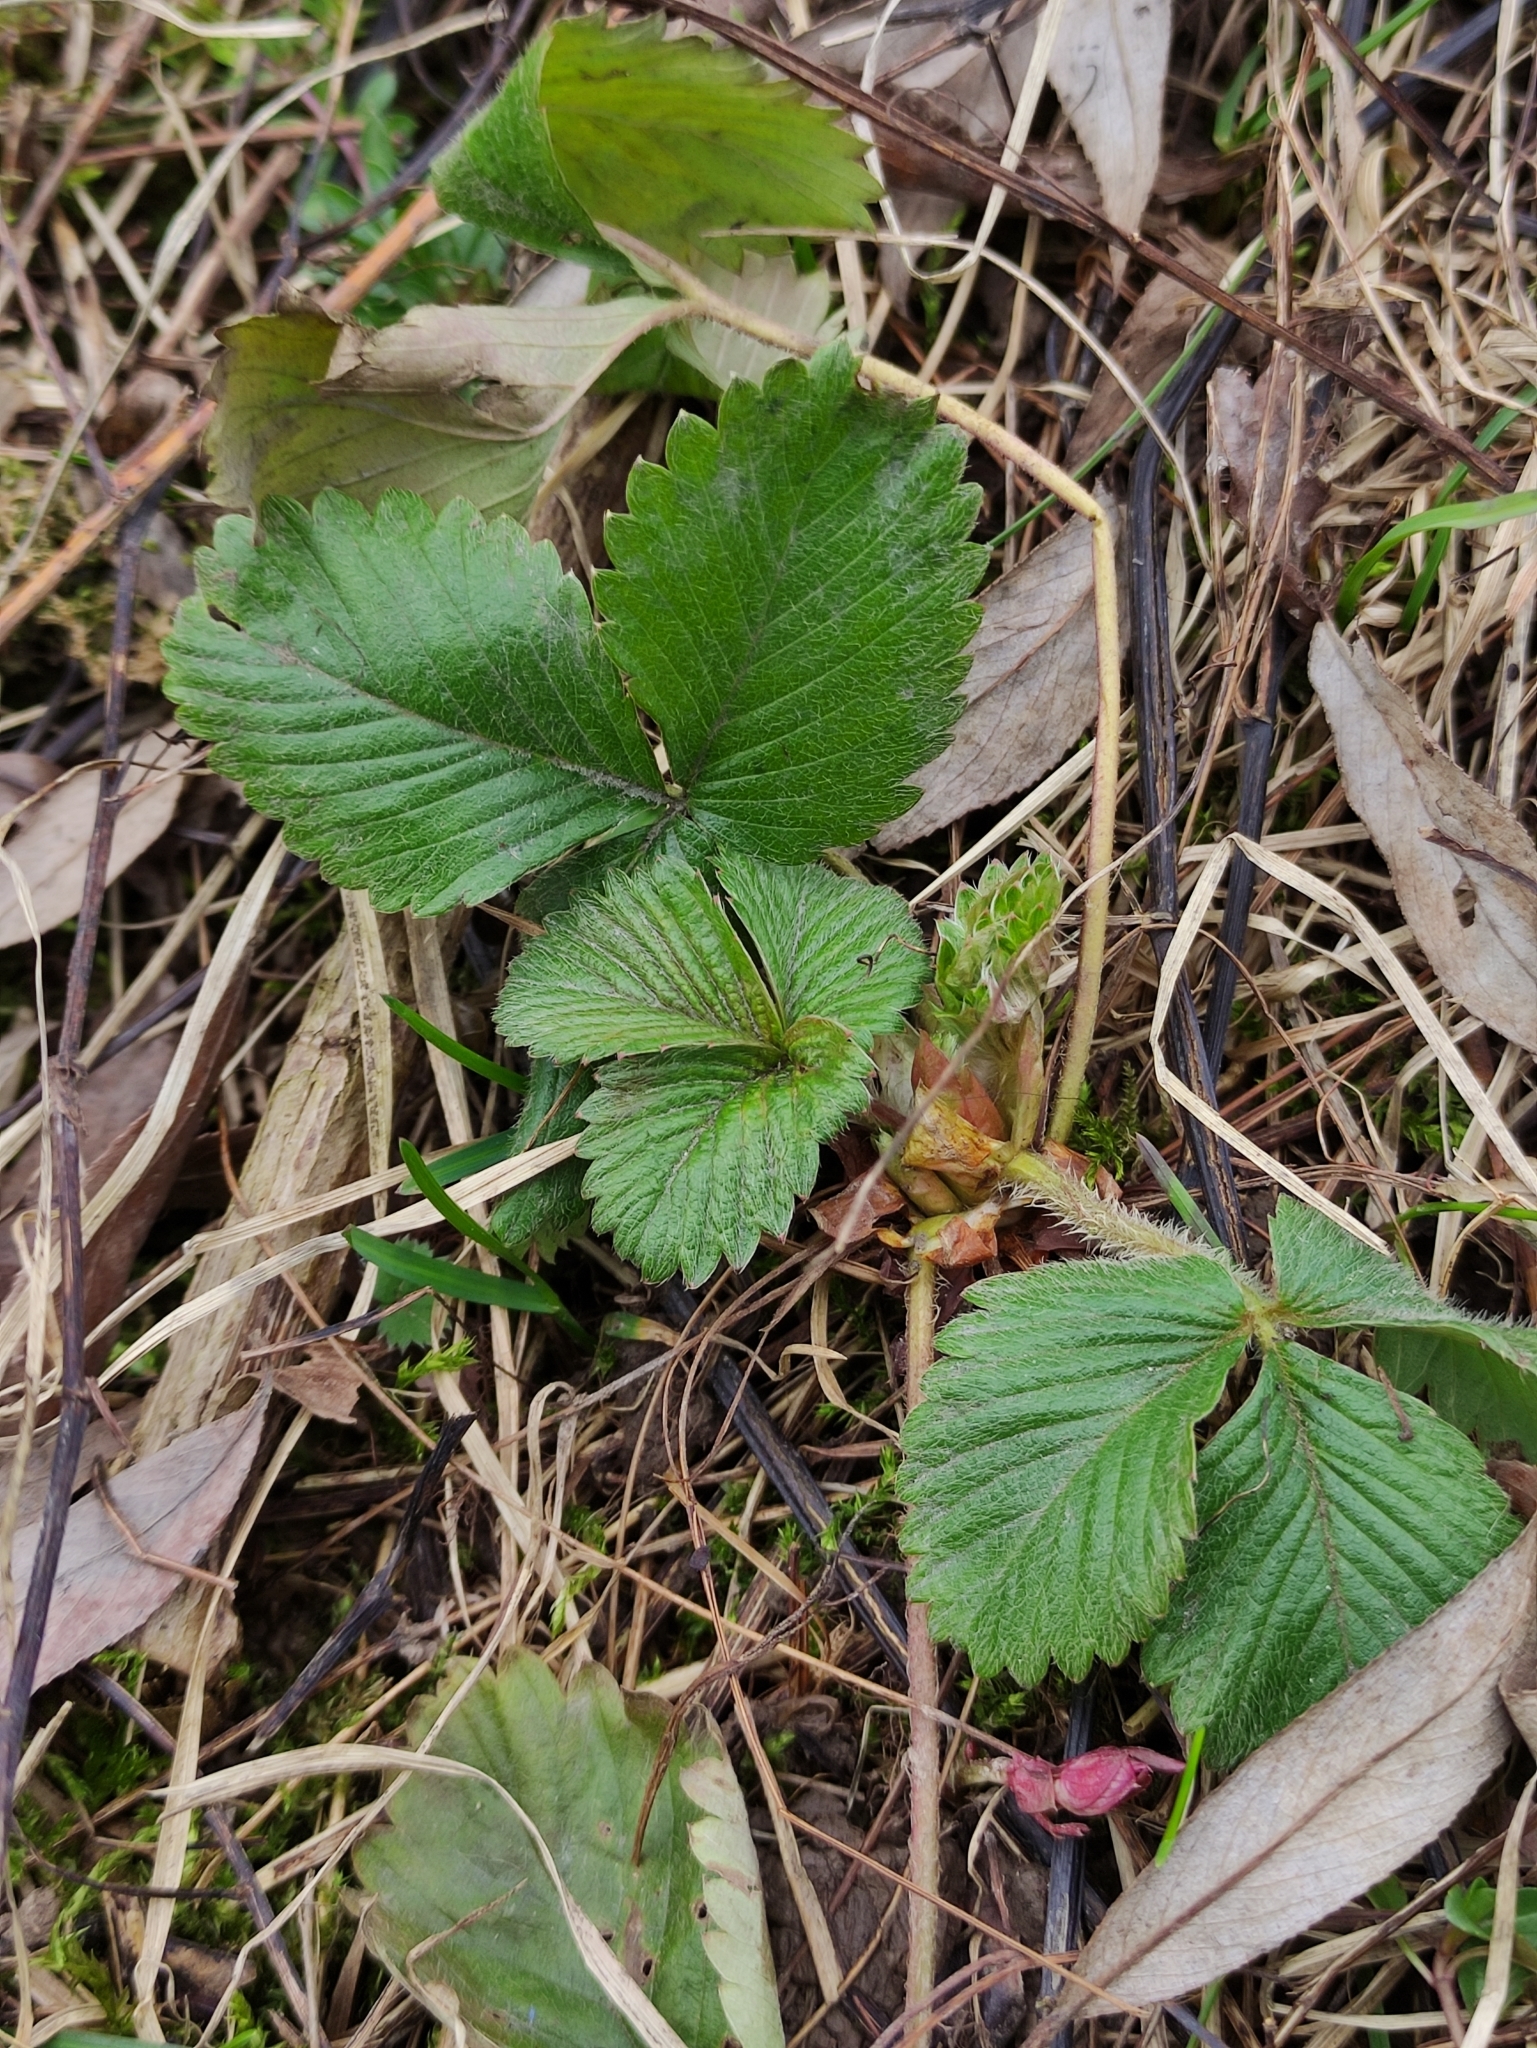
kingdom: Plantae
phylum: Tracheophyta
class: Magnoliopsida
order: Rosales
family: Rosaceae
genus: Fragaria
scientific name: Fragaria vesca
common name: Wild strawberry
